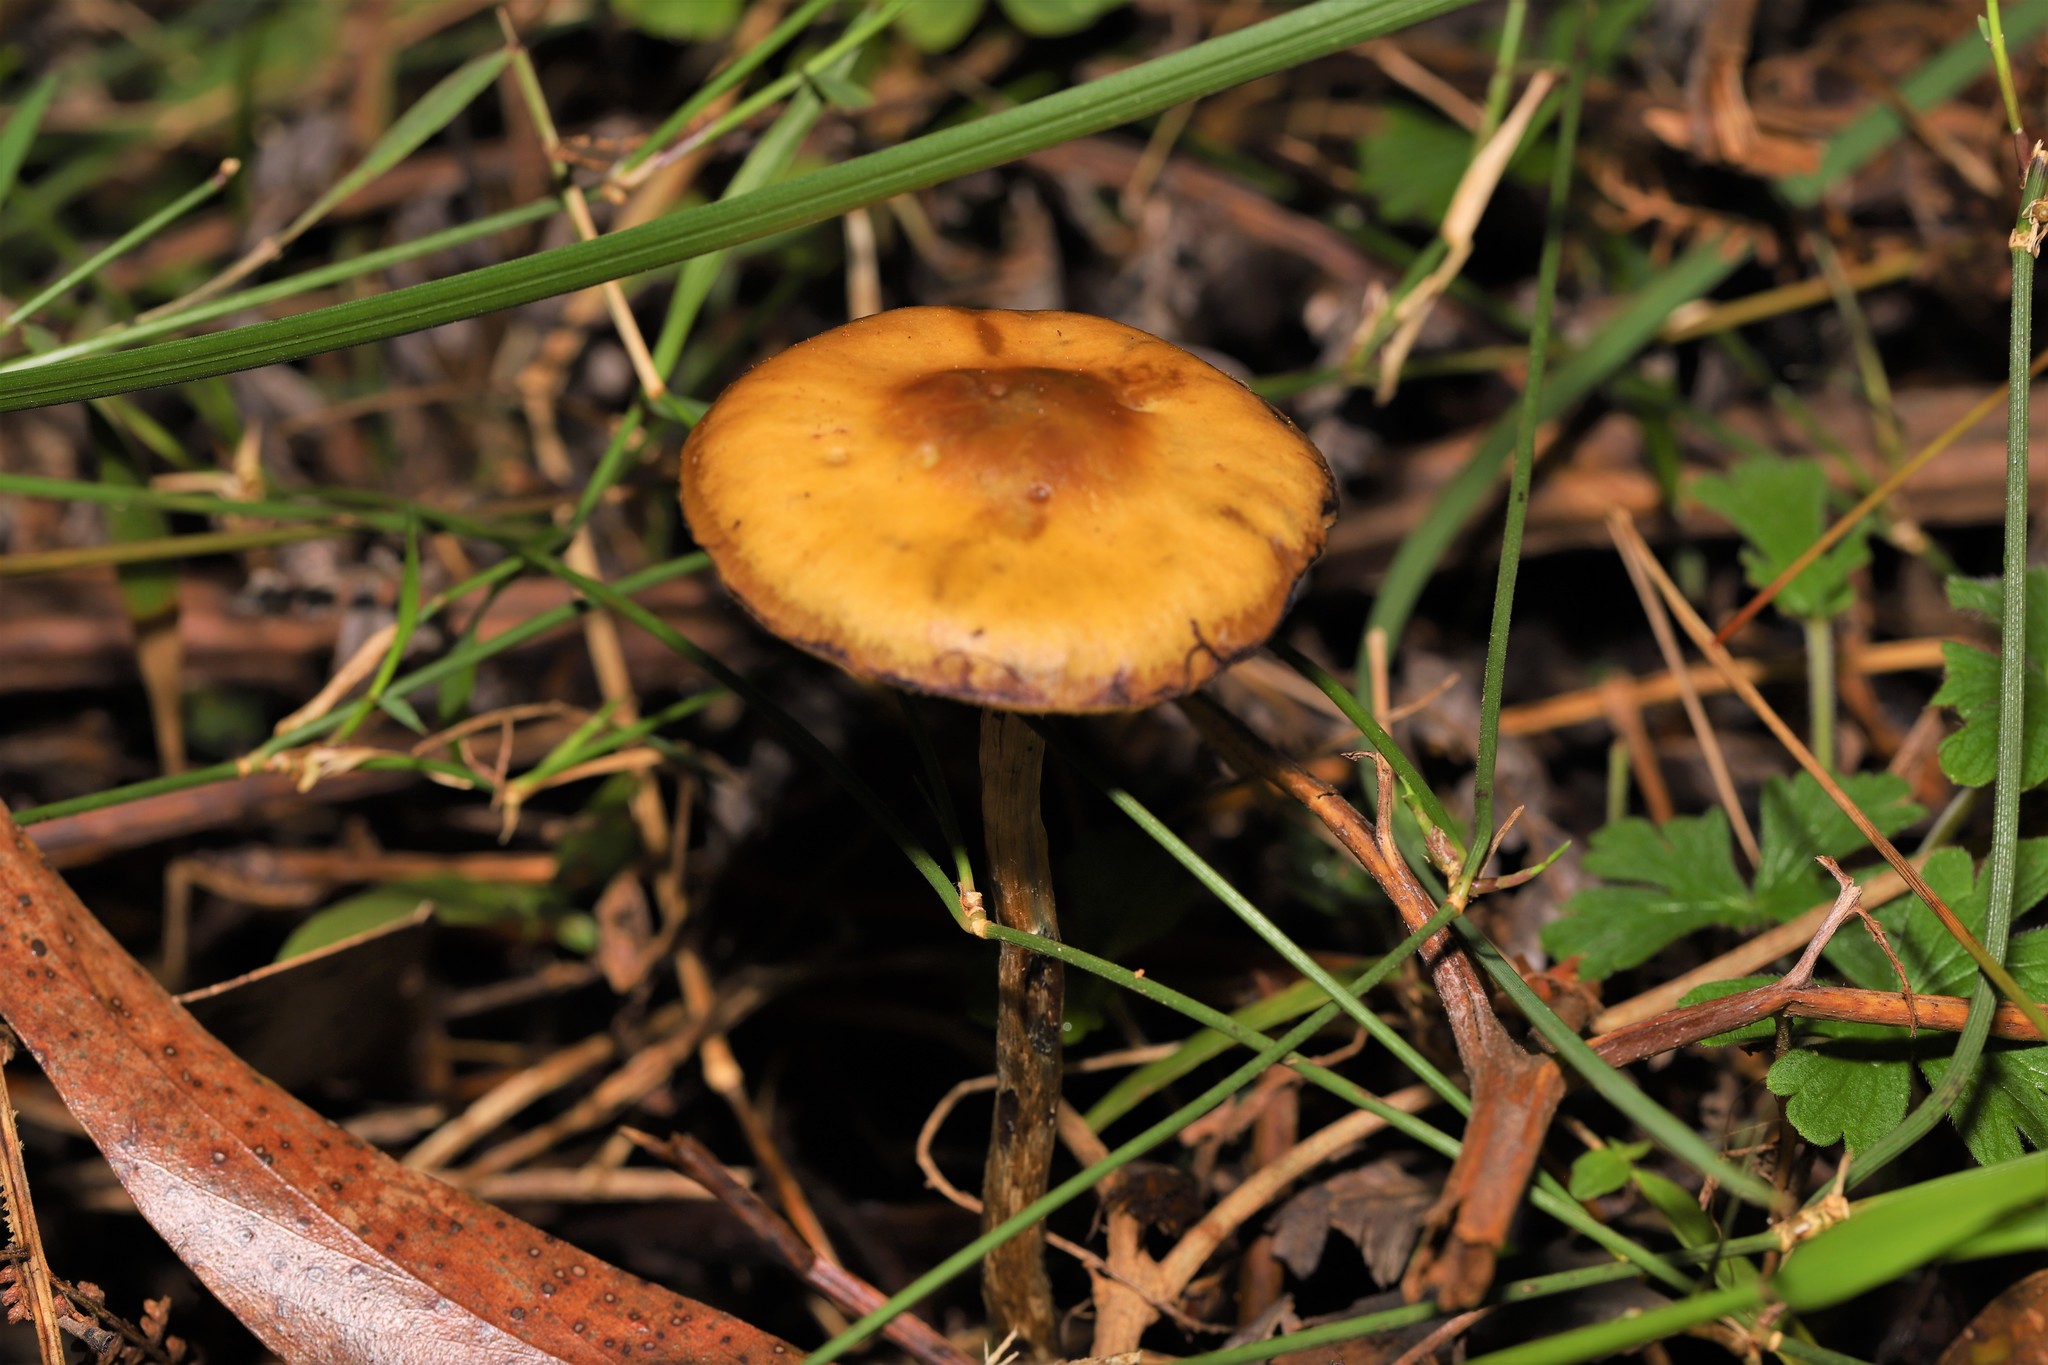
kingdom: Fungi
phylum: Basidiomycota
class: Agaricomycetes
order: Agaricales
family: Hymenogastraceae
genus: Psilocybe
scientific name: Psilocybe subaeruginosa
